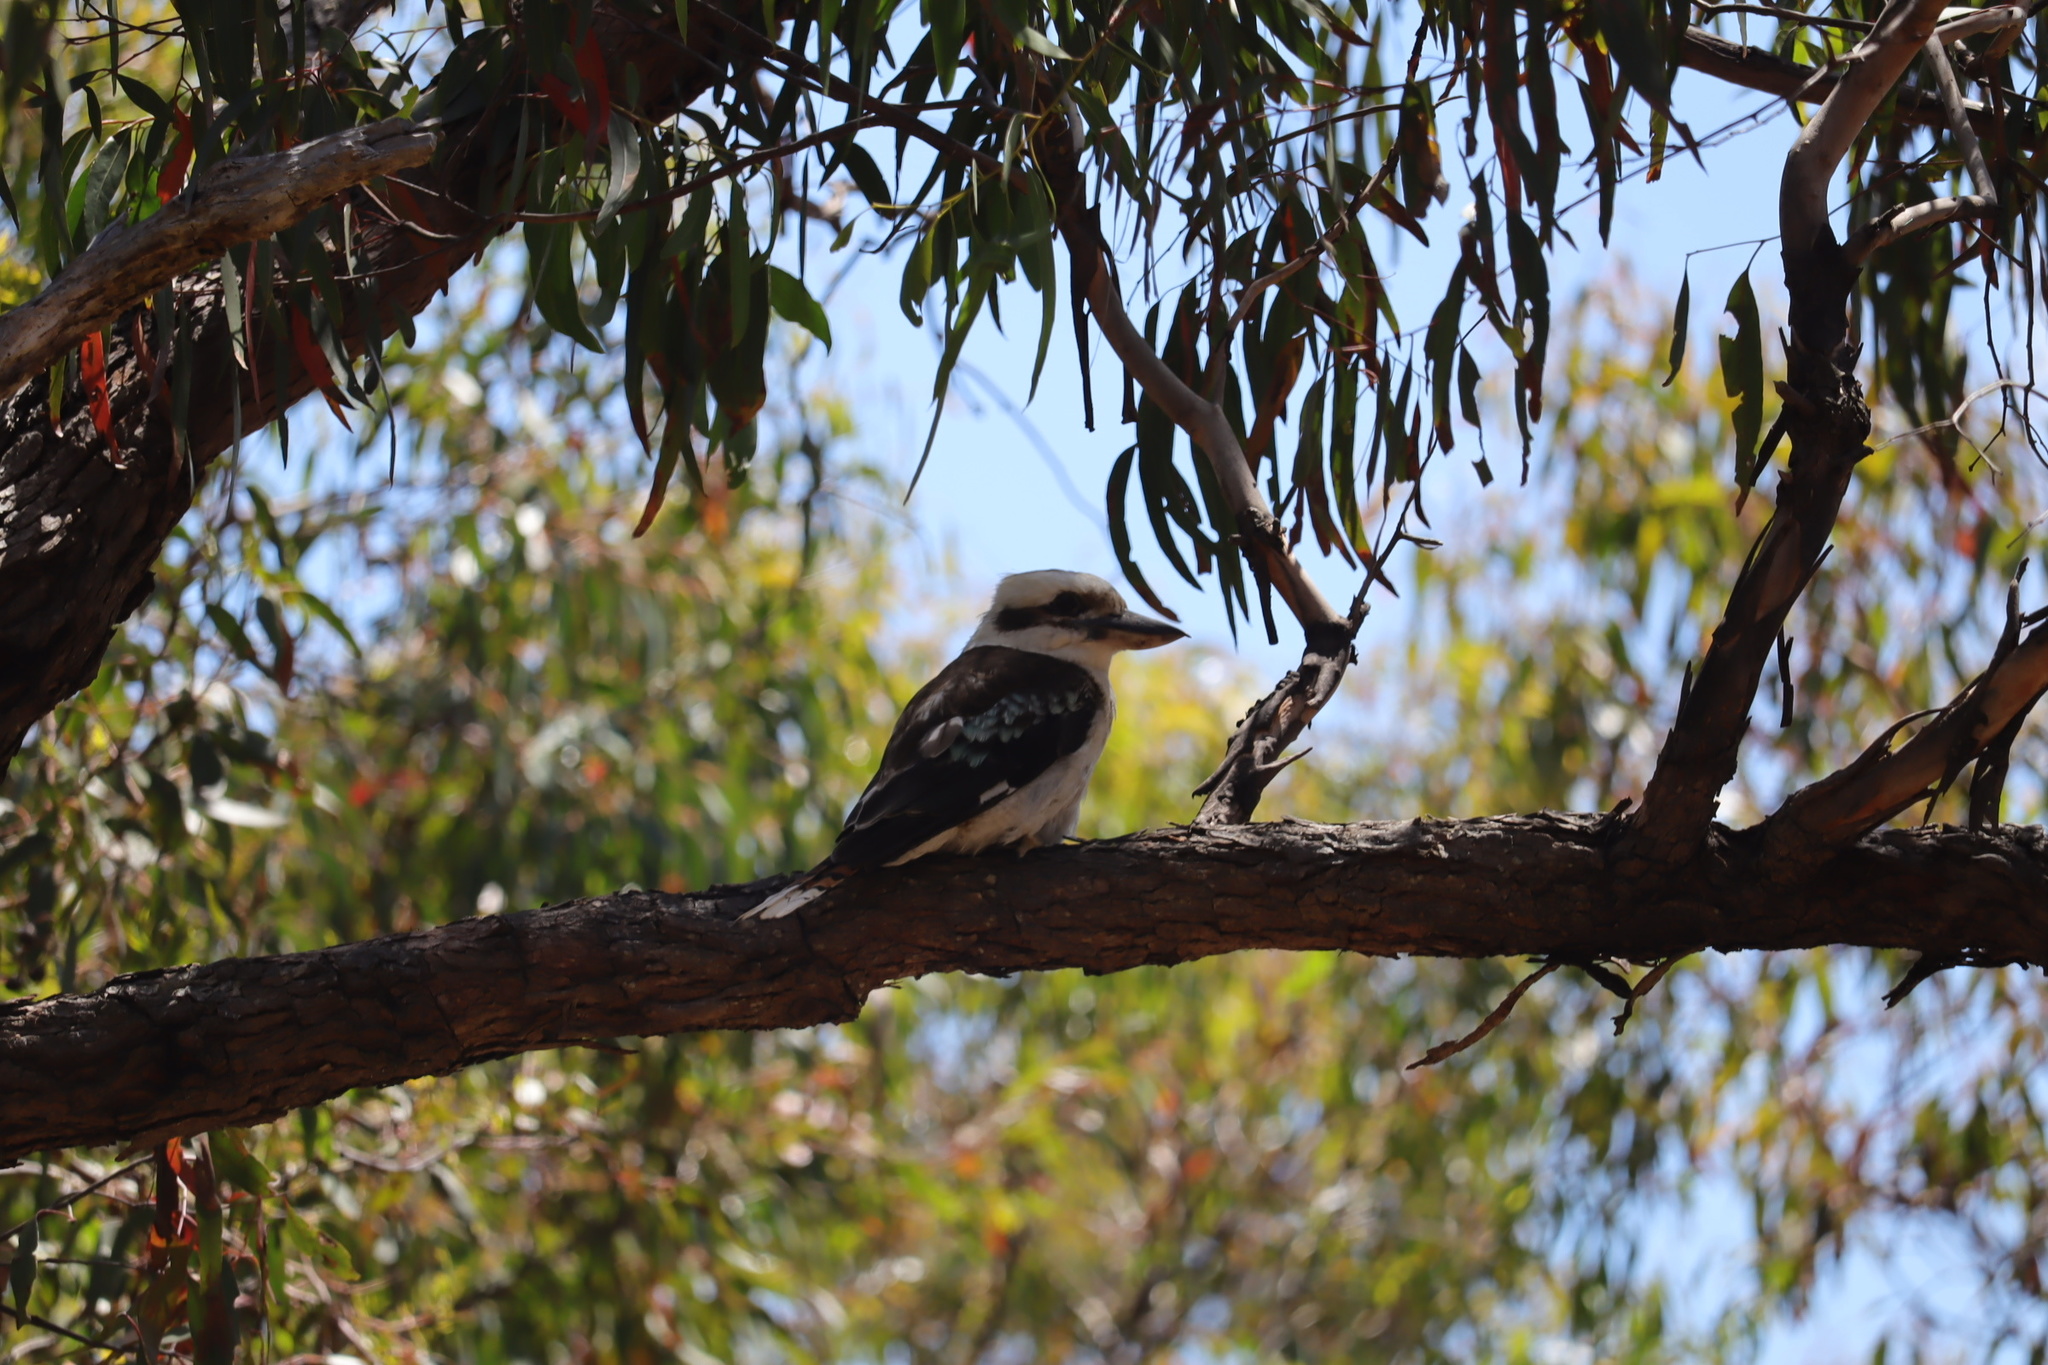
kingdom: Animalia
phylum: Chordata
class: Aves
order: Coraciiformes
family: Alcedinidae
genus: Dacelo
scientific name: Dacelo novaeguineae
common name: Laughing kookaburra
